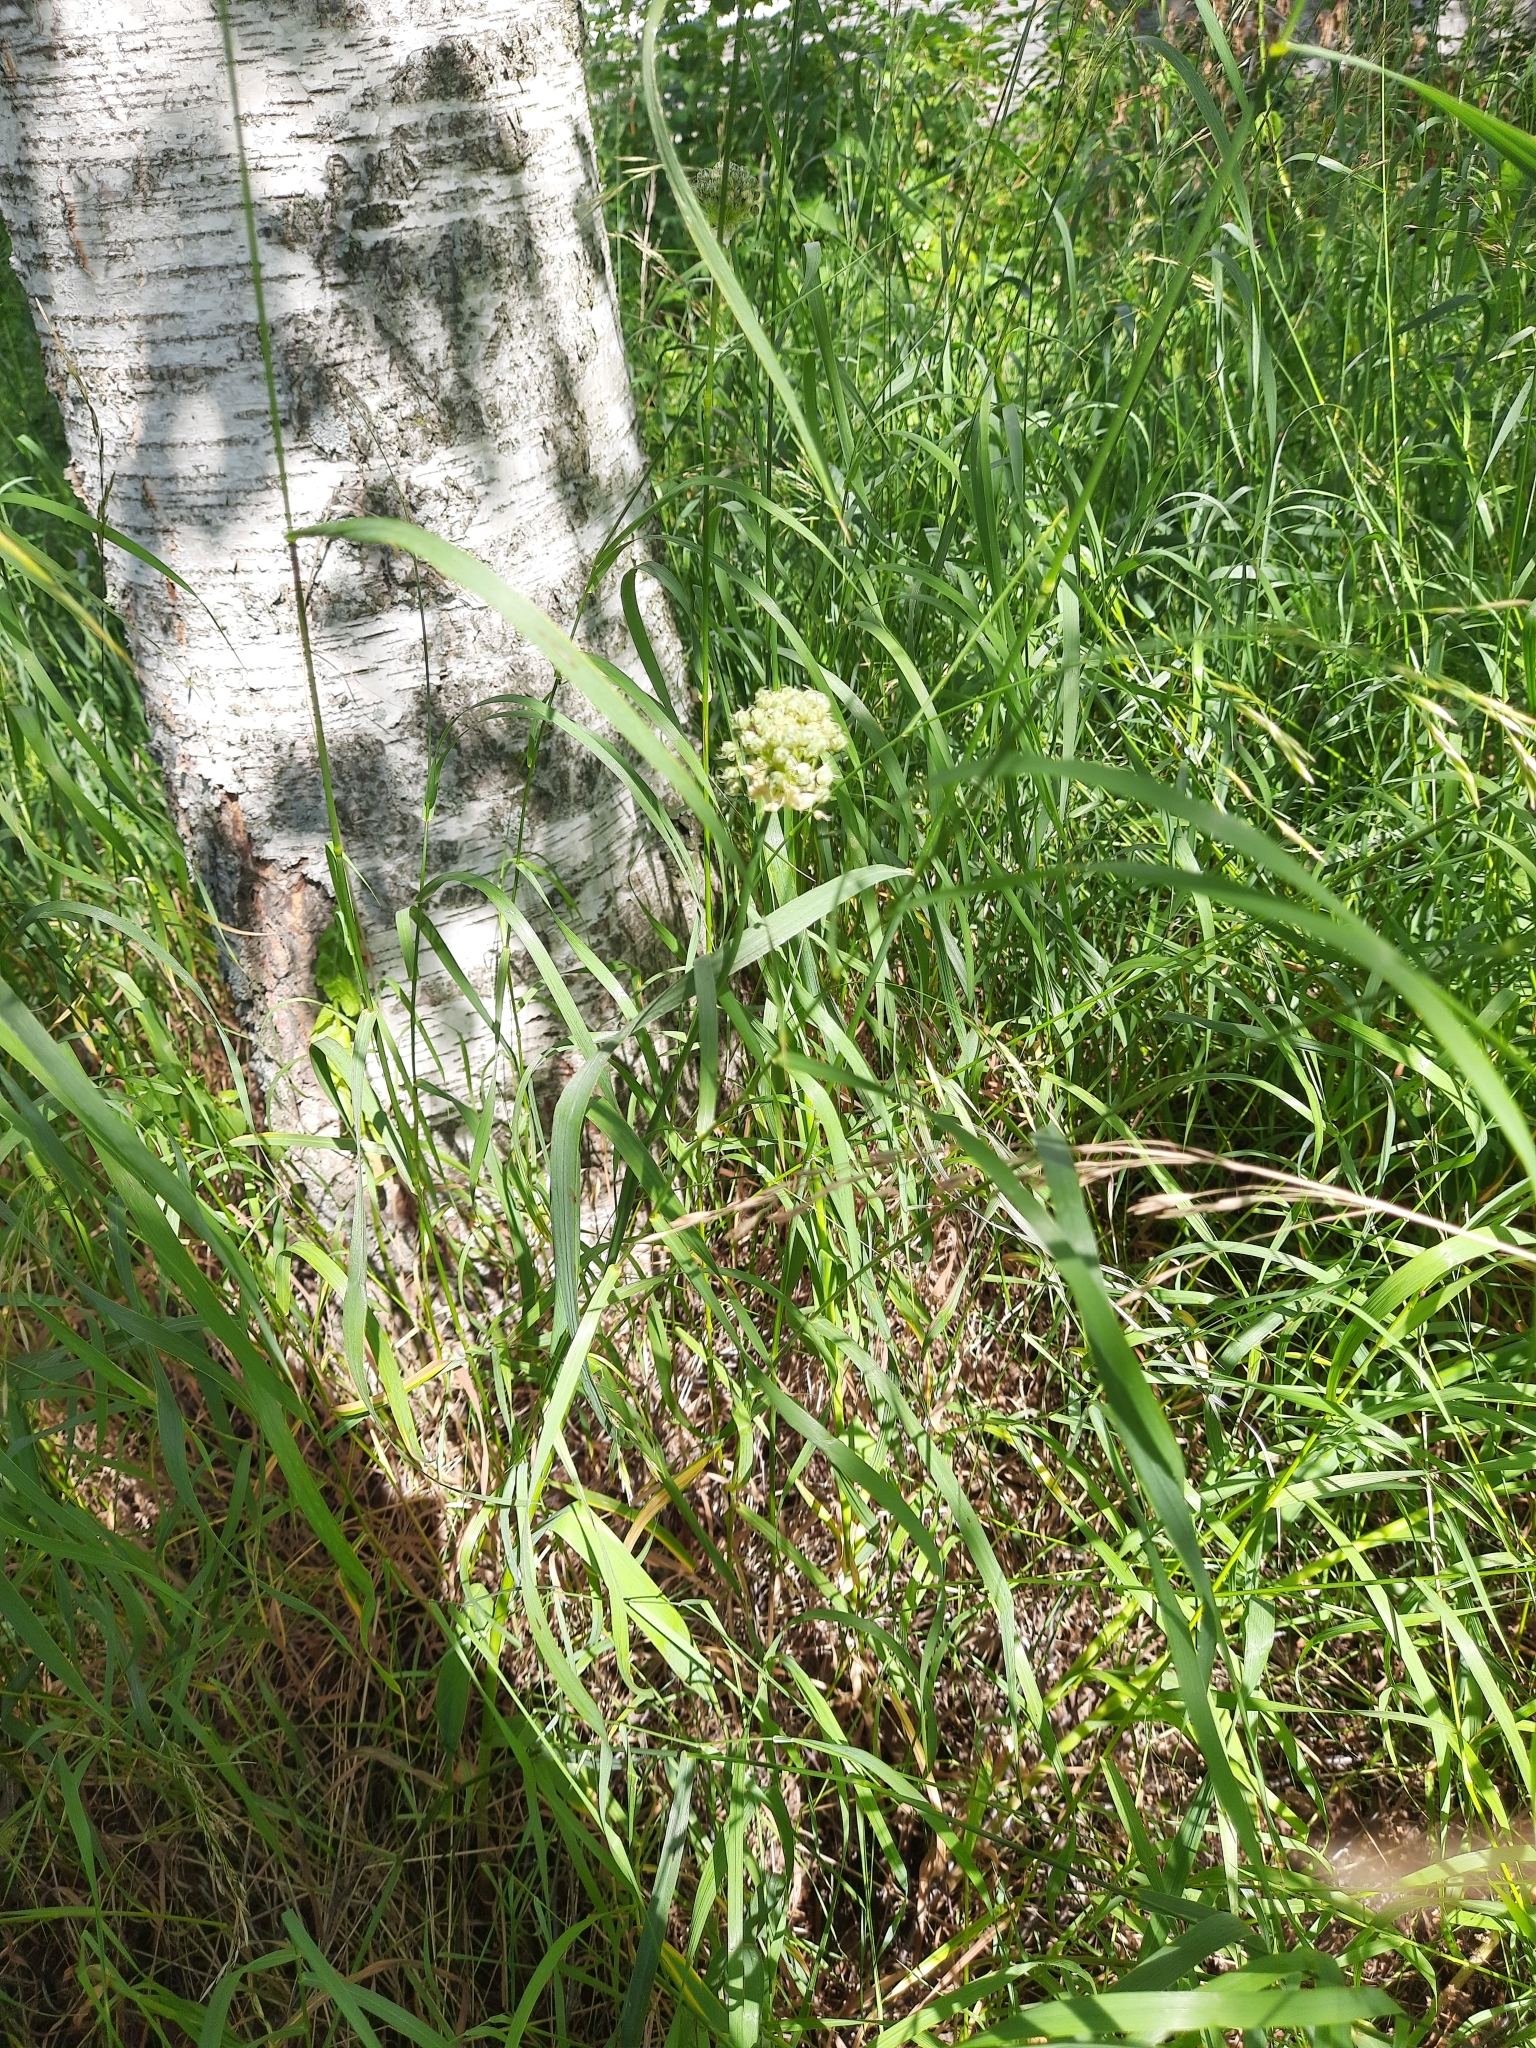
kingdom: Plantae
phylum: Tracheophyta
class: Liliopsida
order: Asparagales
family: Amaryllidaceae
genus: Allium
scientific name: Allium obliquum
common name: Oblique onion
